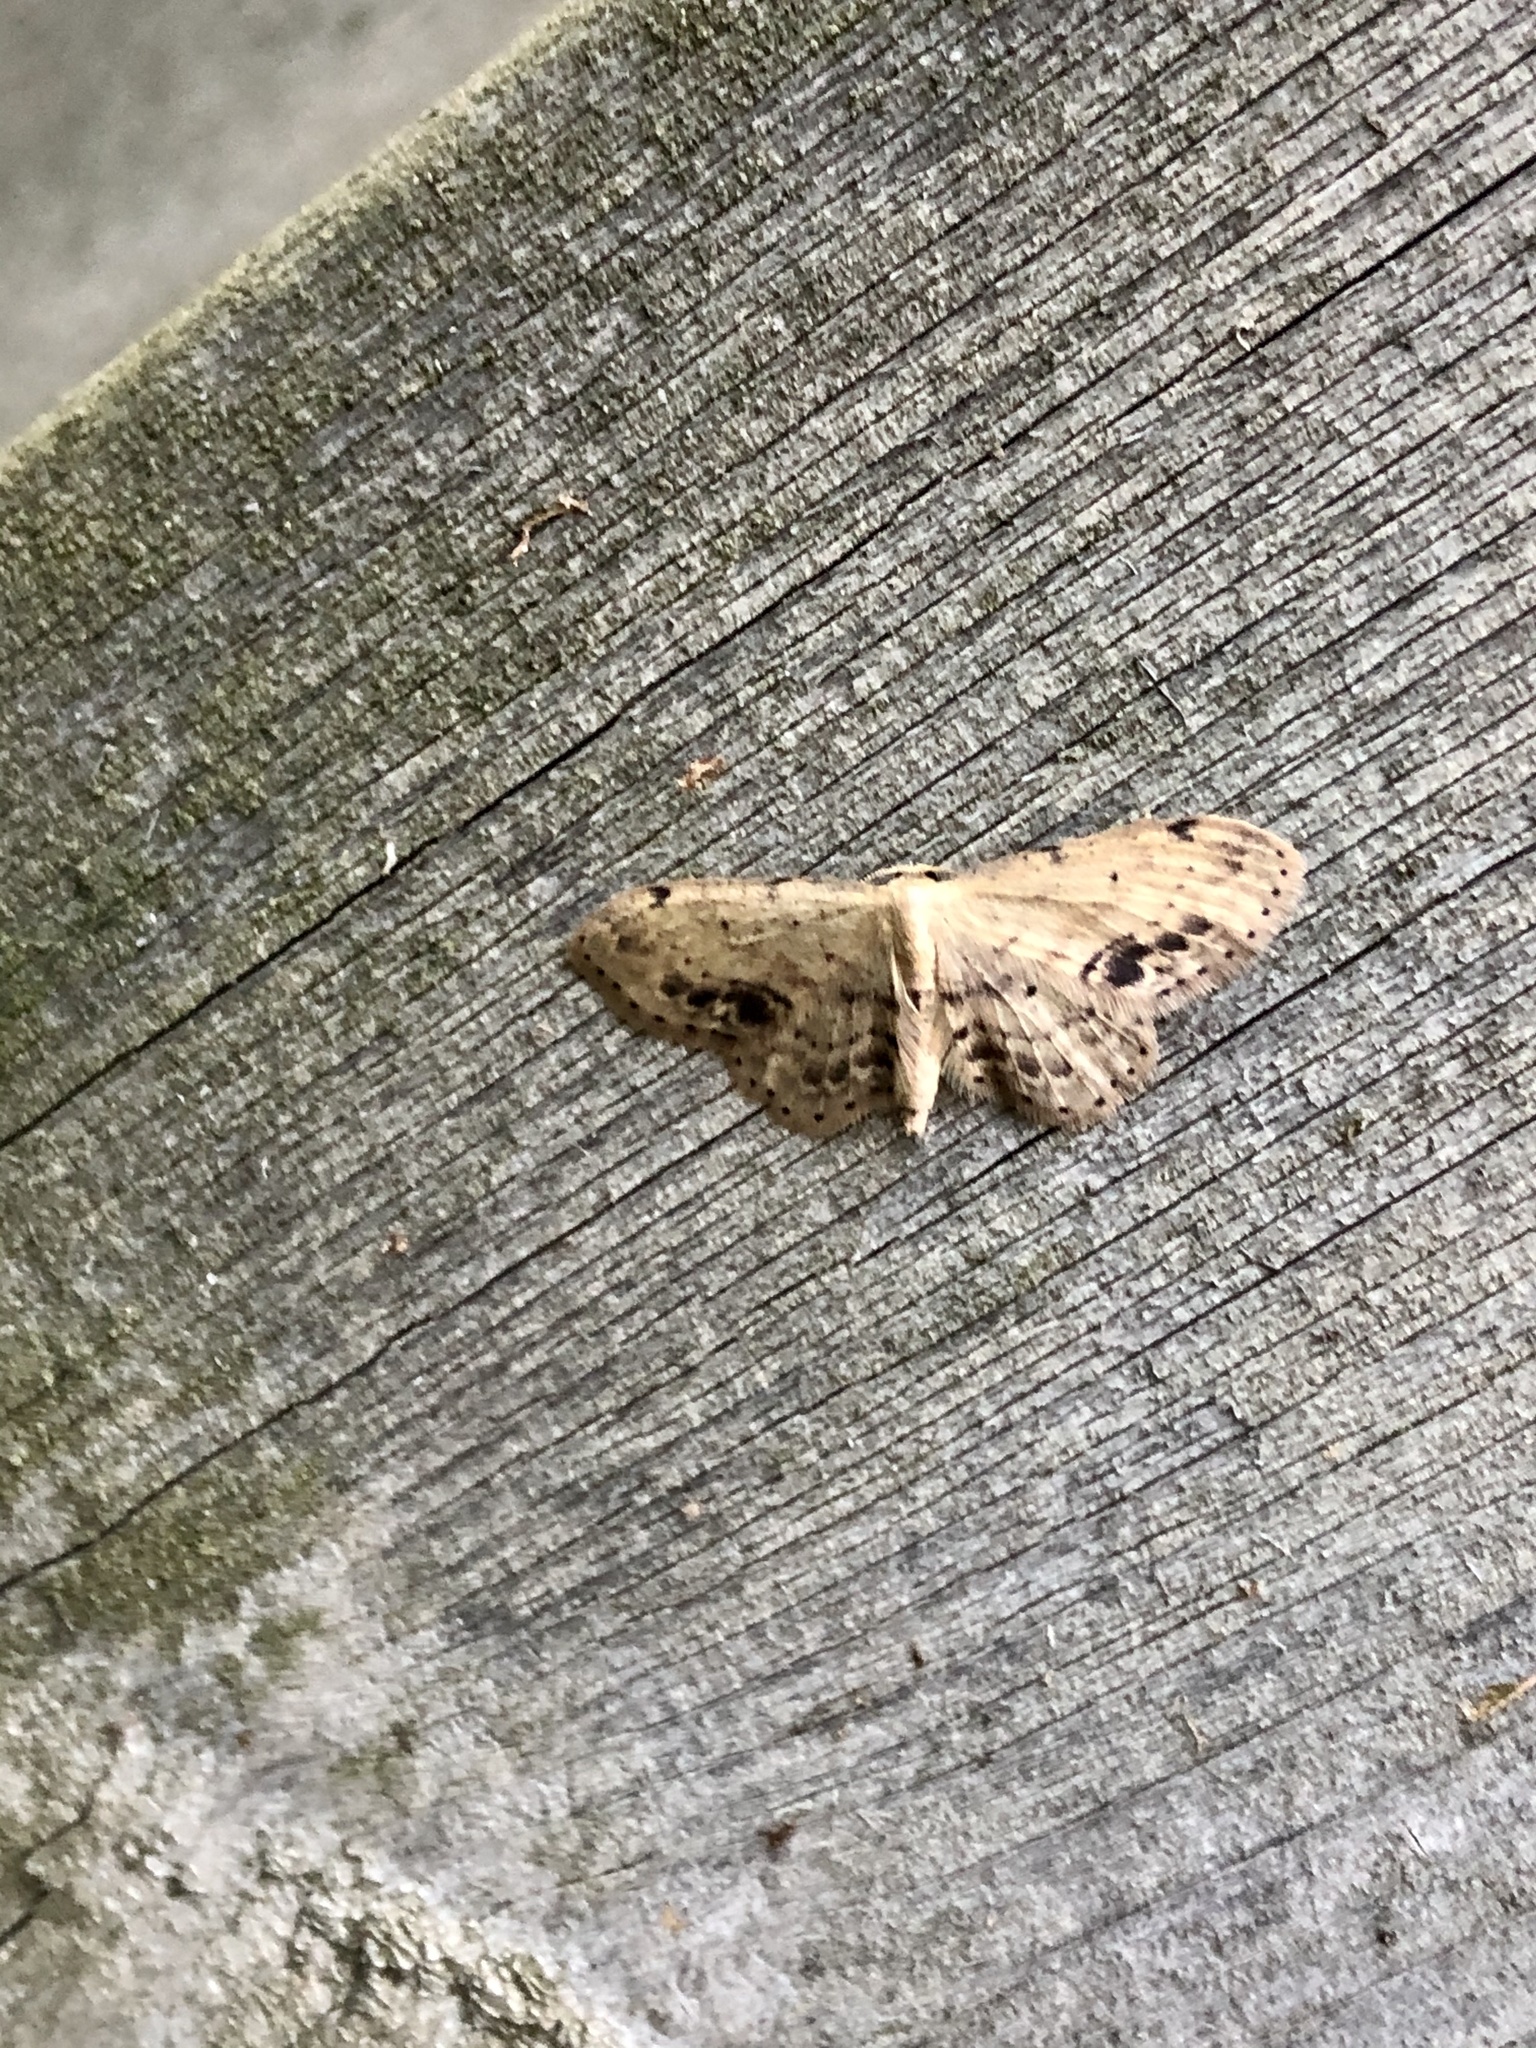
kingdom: Animalia
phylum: Arthropoda
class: Insecta
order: Lepidoptera
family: Geometridae
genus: Idaea
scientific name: Idaea dimidiata
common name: Single-dotted wave
